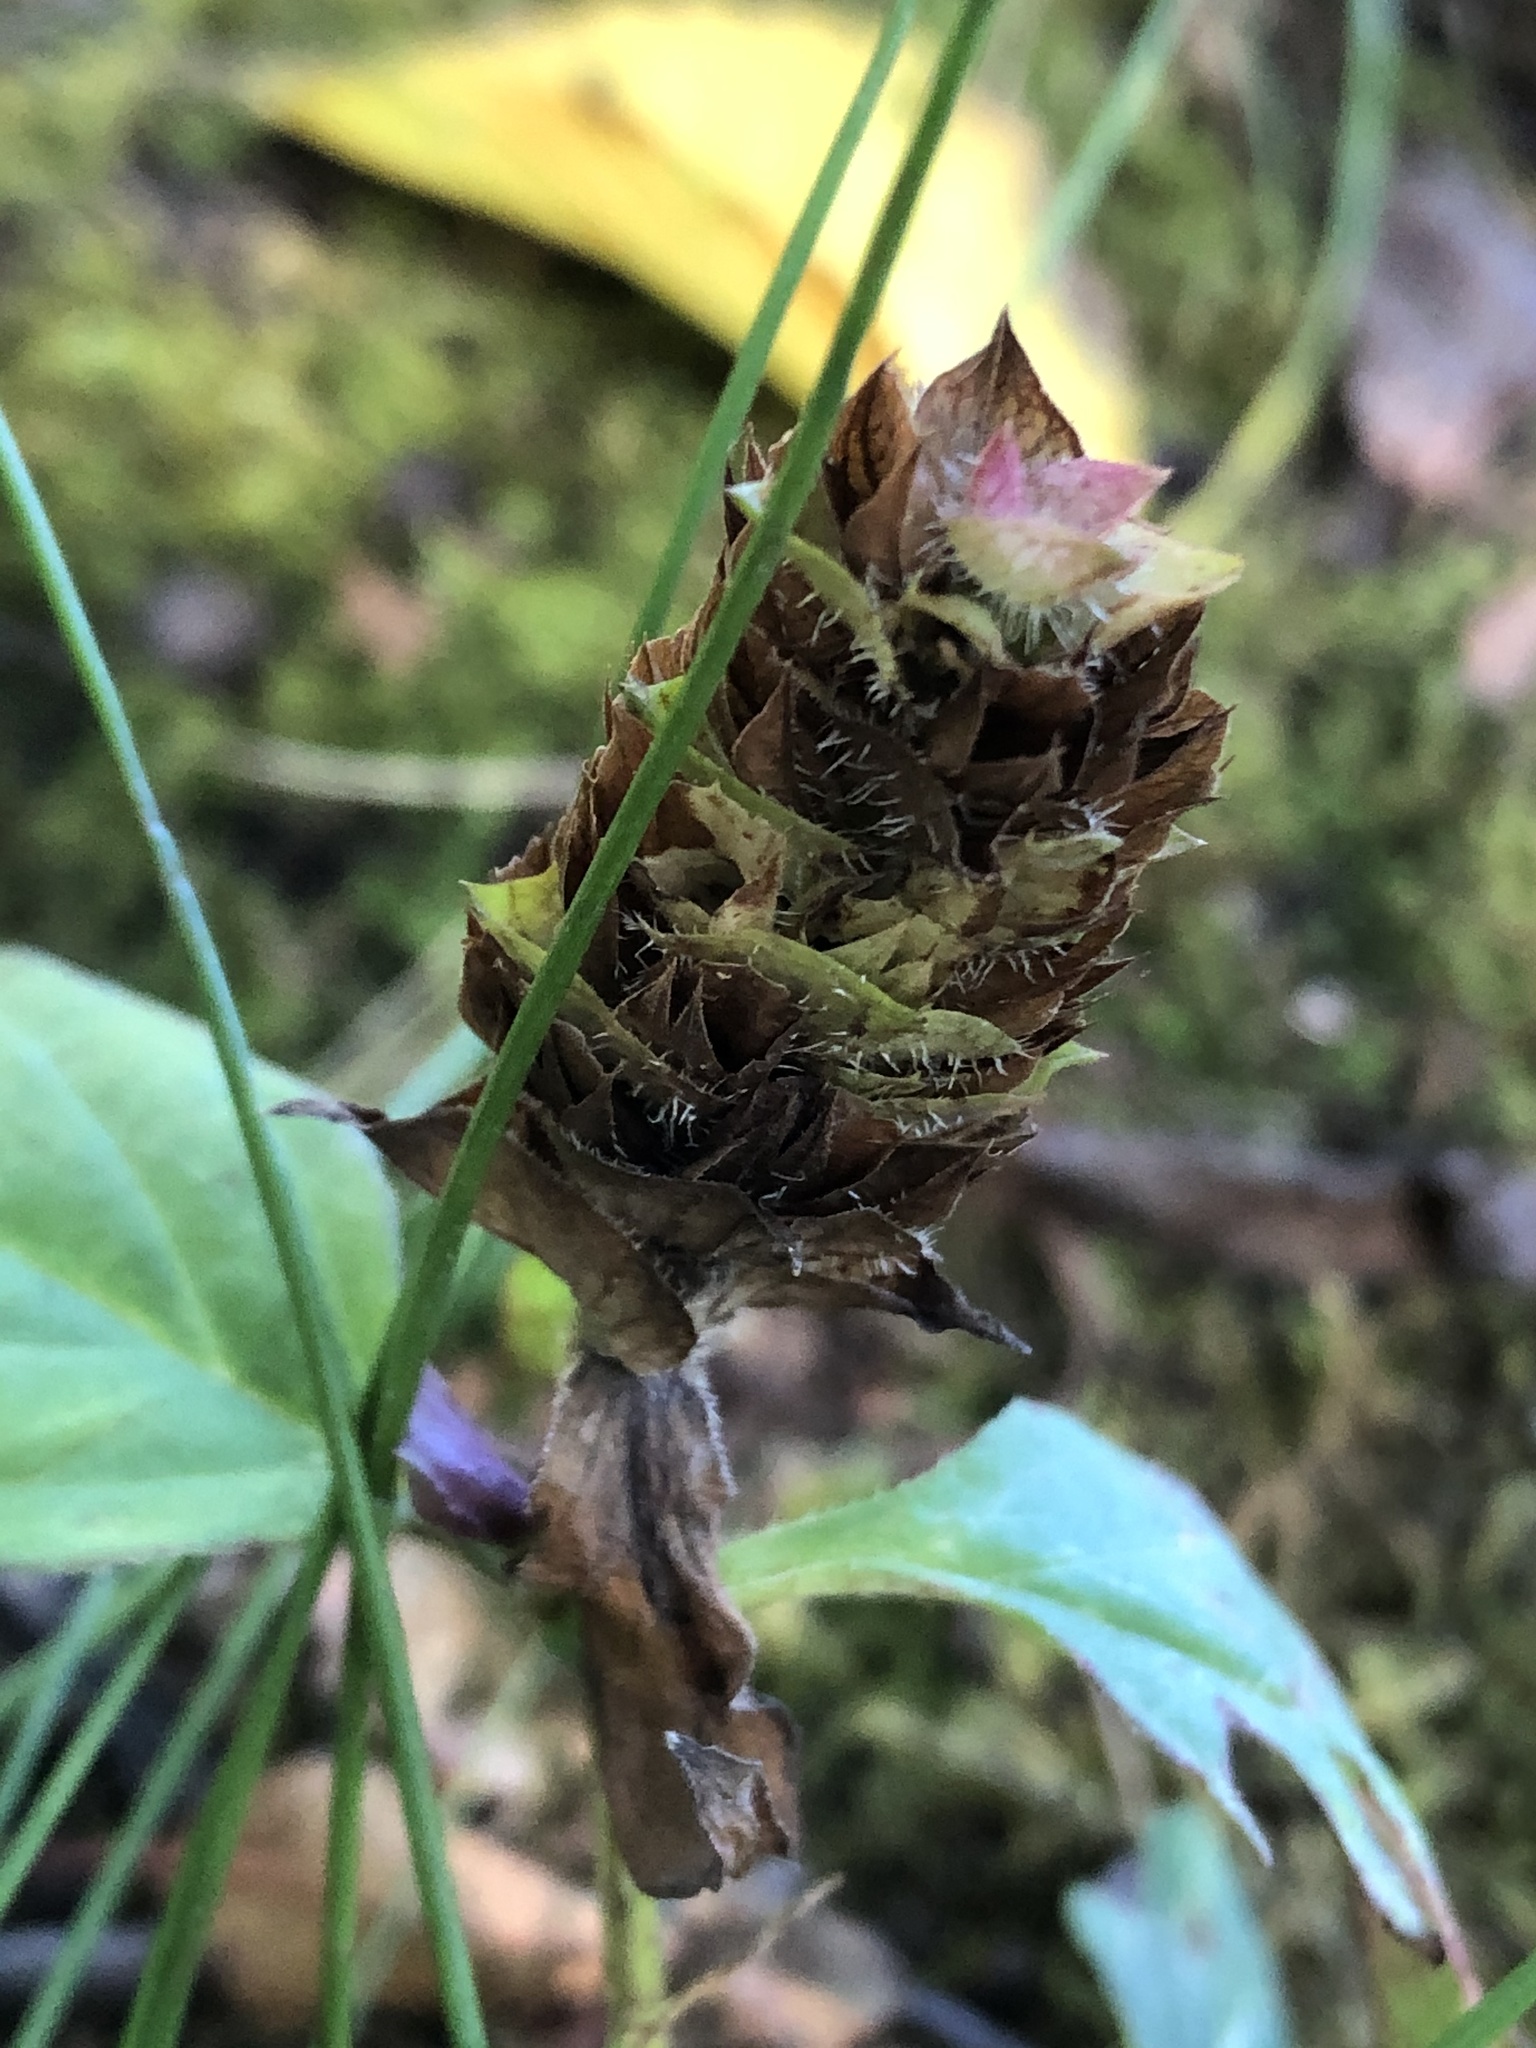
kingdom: Plantae
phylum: Tracheophyta
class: Magnoliopsida
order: Lamiales
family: Lamiaceae
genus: Prunella
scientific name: Prunella vulgaris
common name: Heal-all
